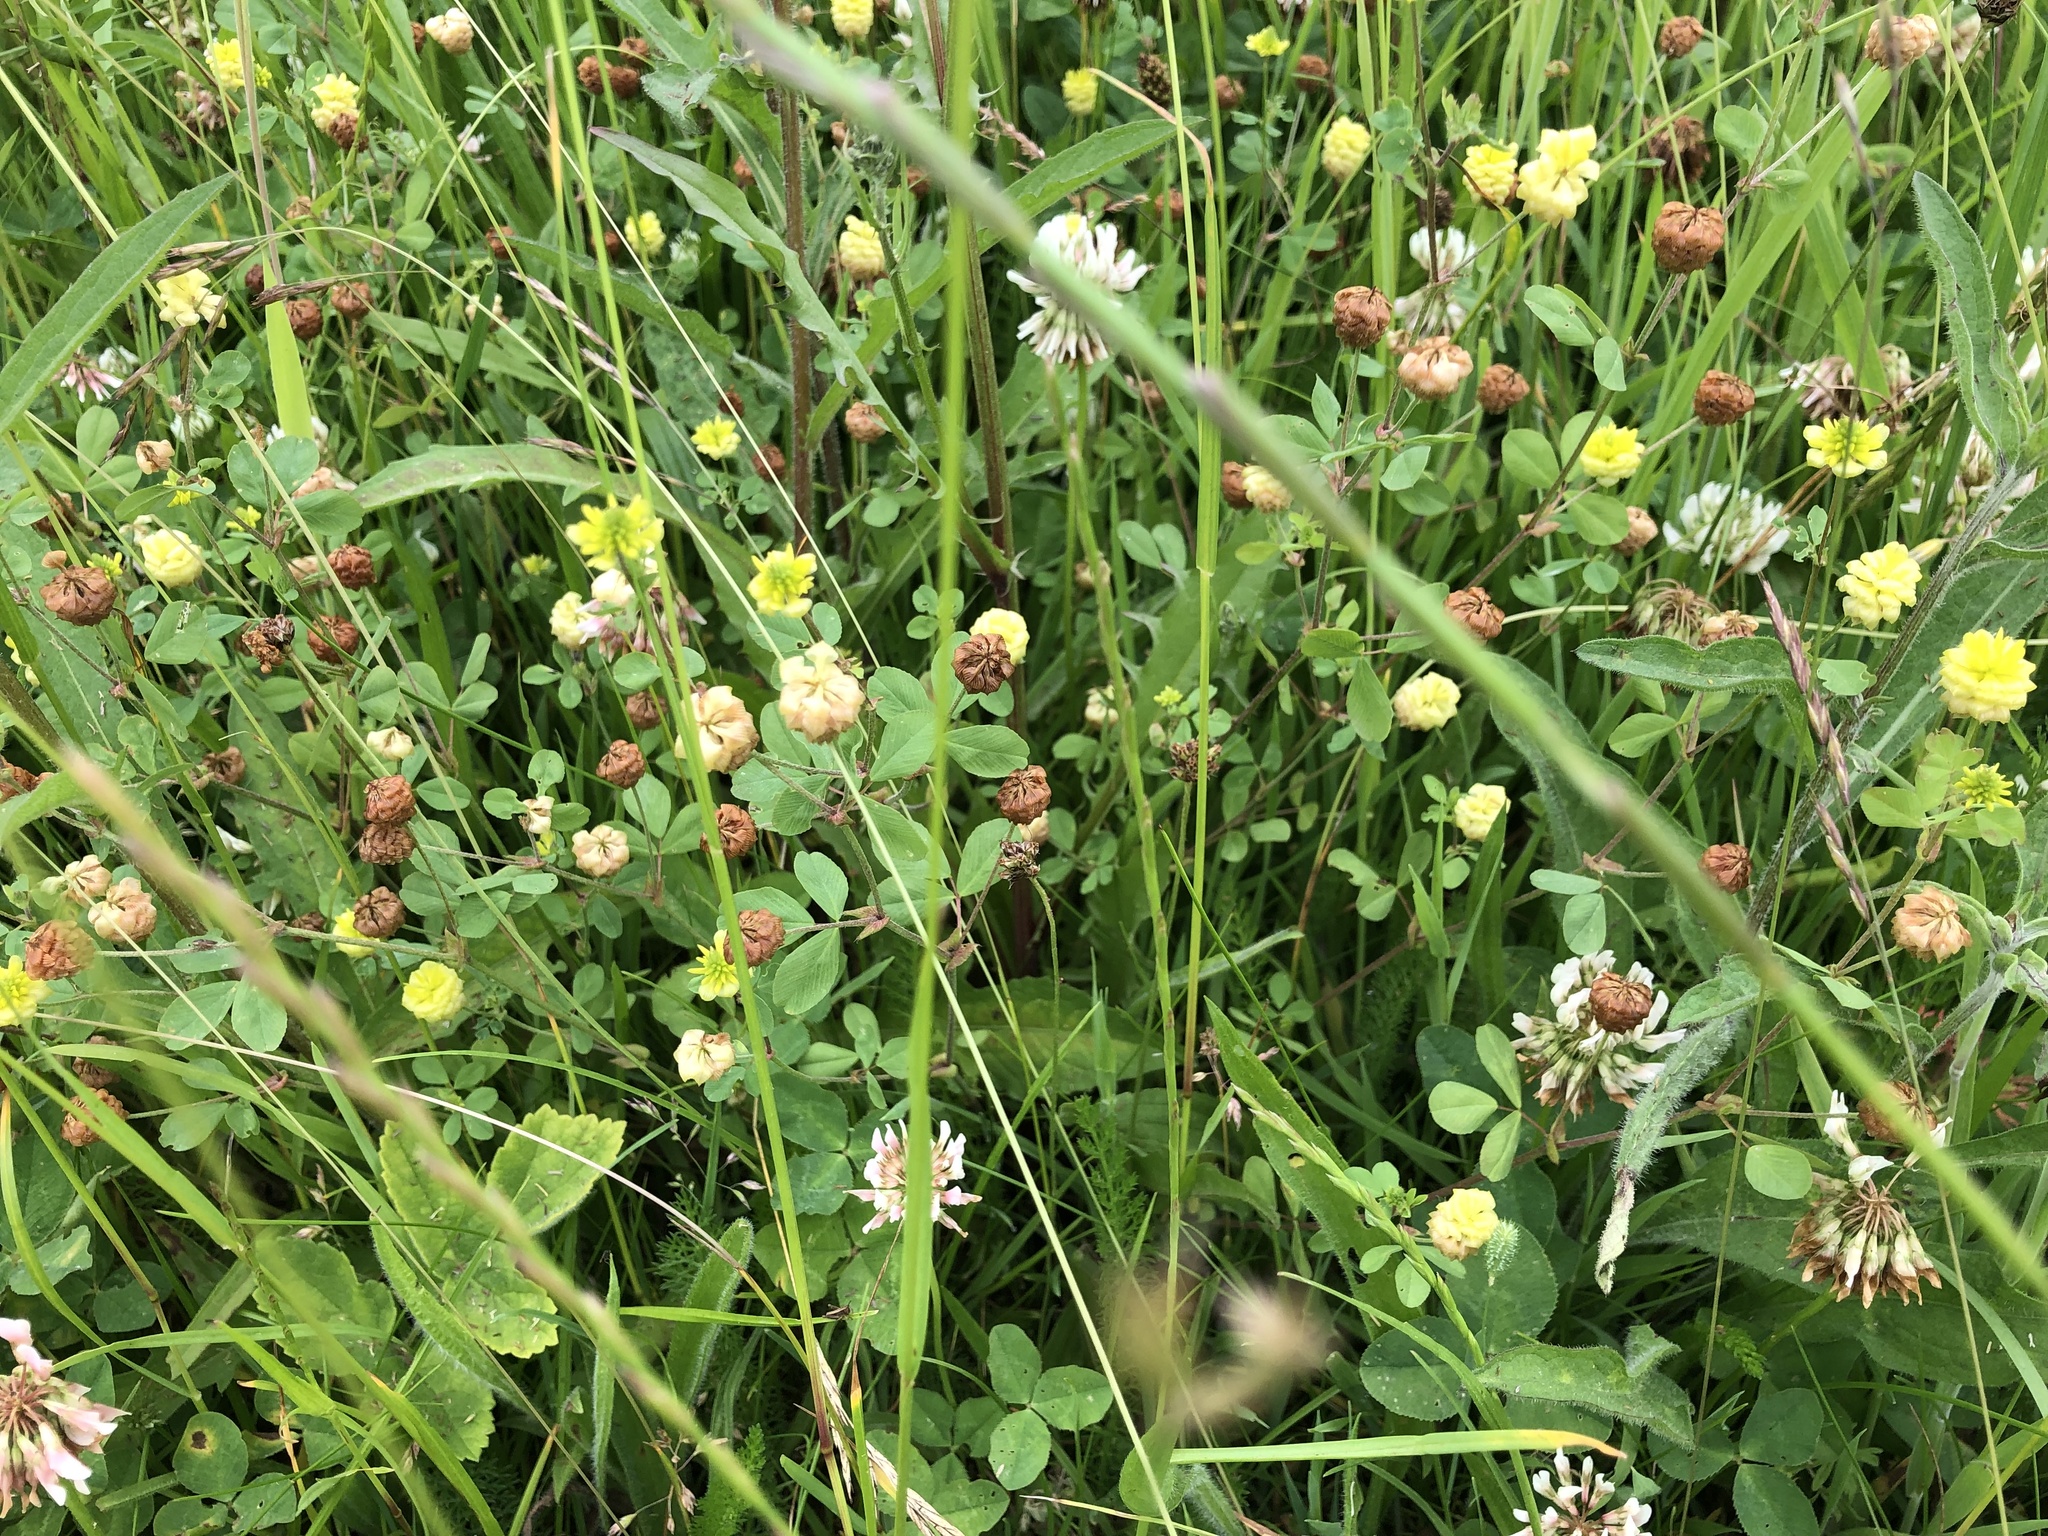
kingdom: Plantae
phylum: Tracheophyta
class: Magnoliopsida
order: Fabales
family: Fabaceae
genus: Trifolium
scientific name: Trifolium campestre
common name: Field clover
